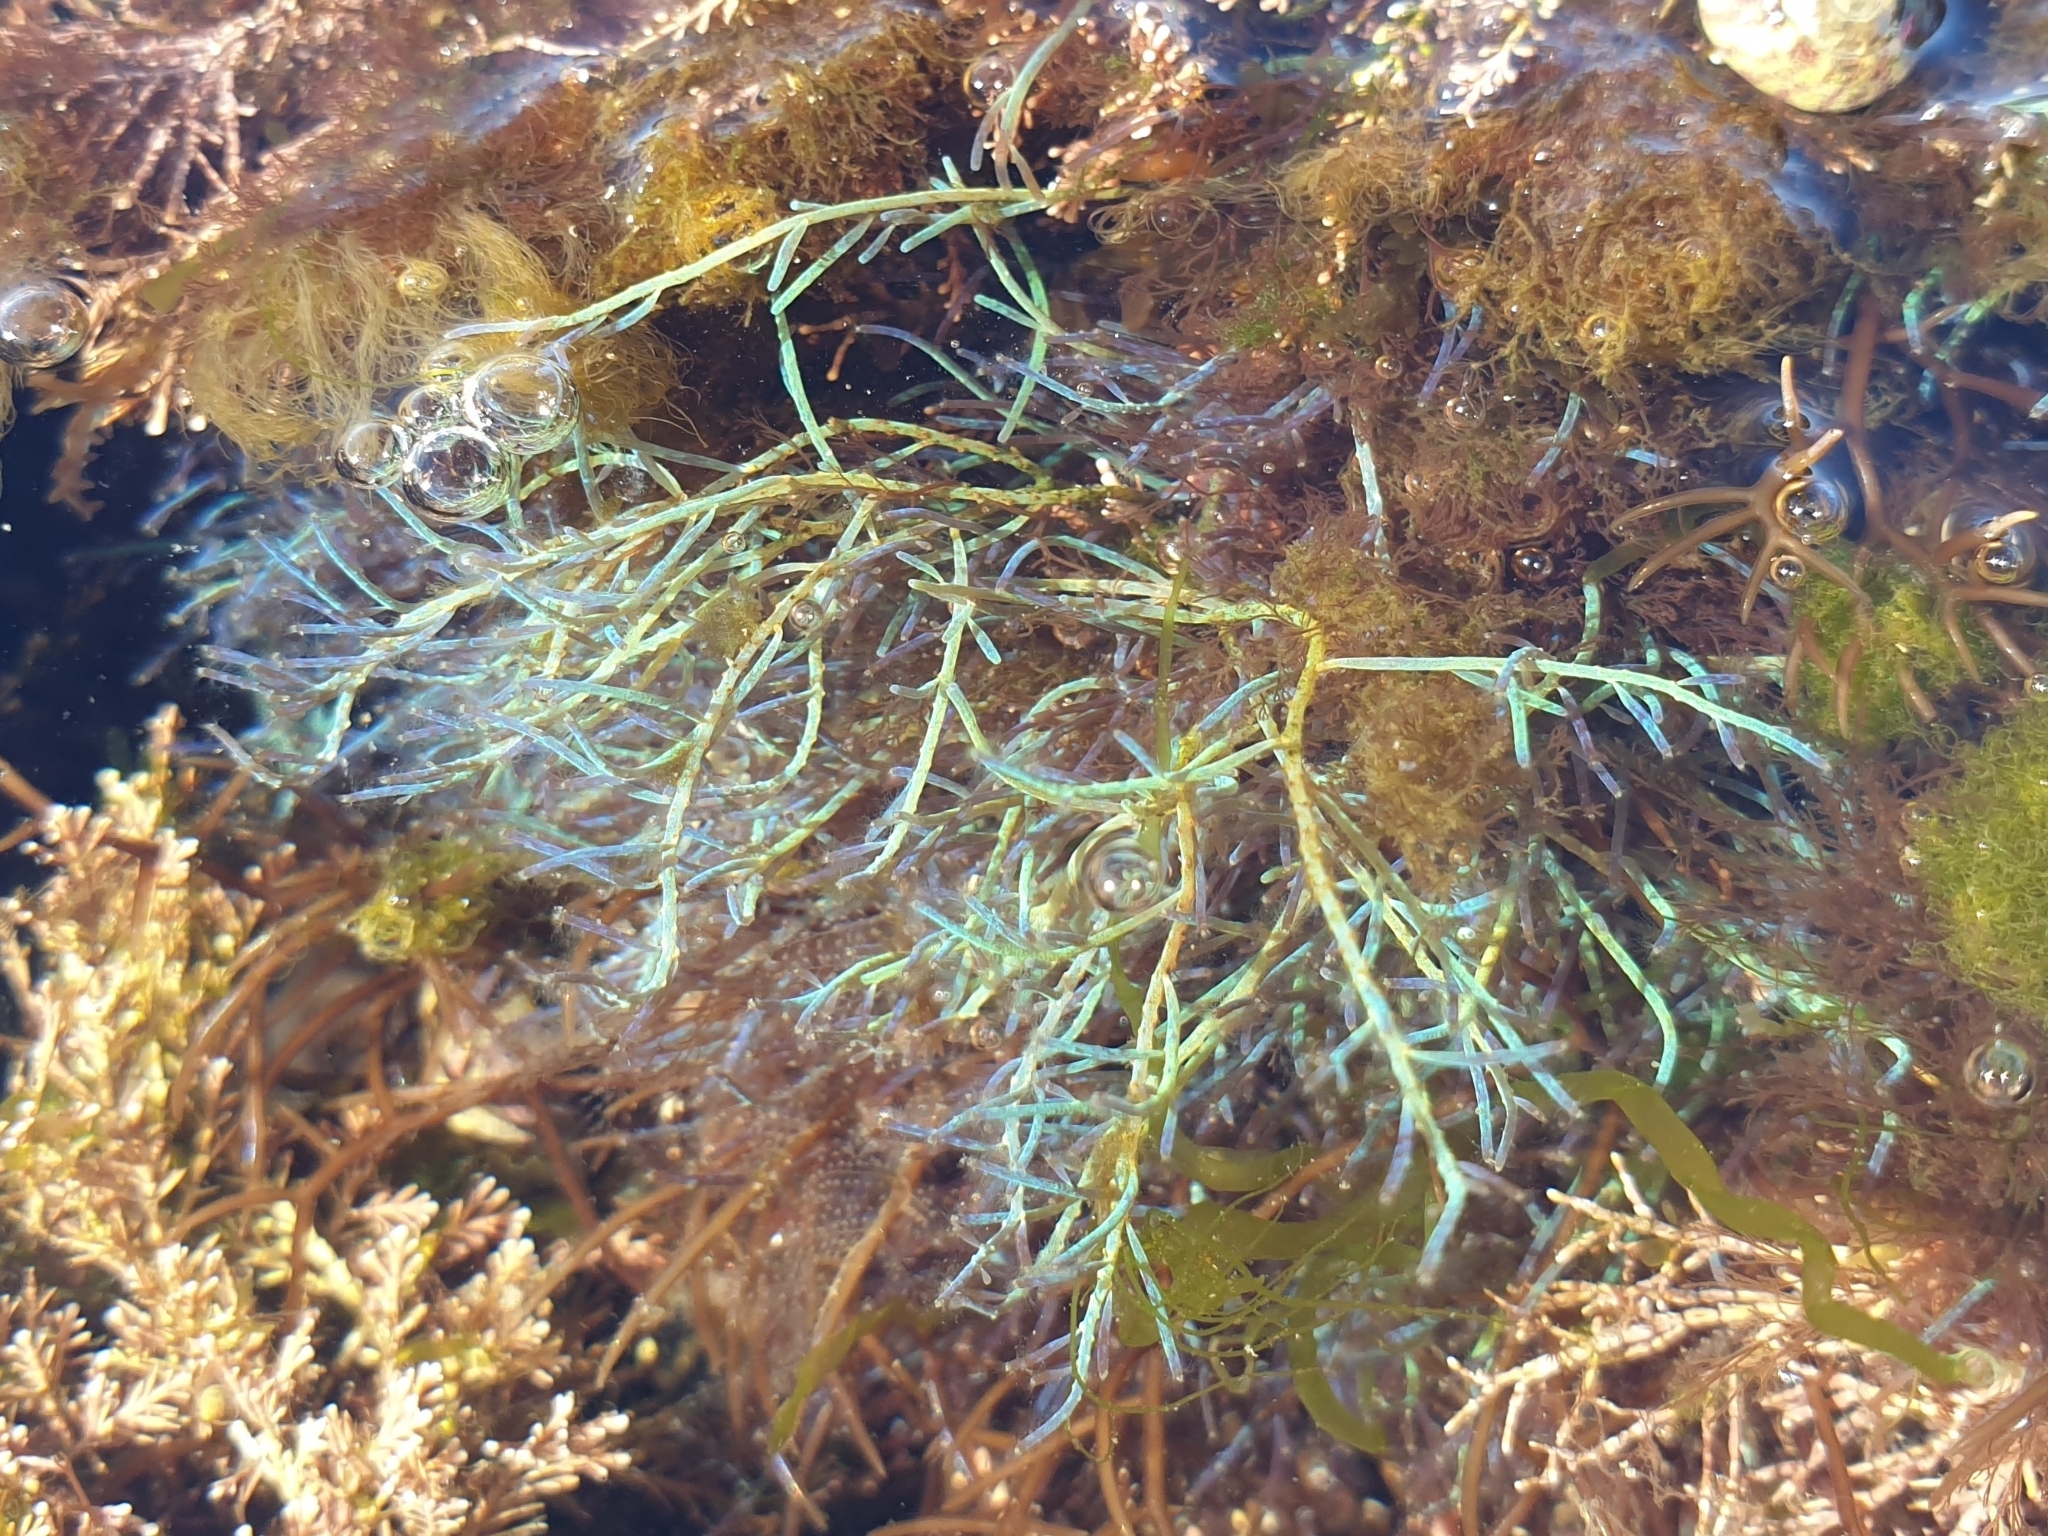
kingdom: Plantae
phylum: Rhodophyta
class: Florideophyceae
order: Ceramiales
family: Rhodomelaceae
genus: Chondria
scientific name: Chondria coerulescens
